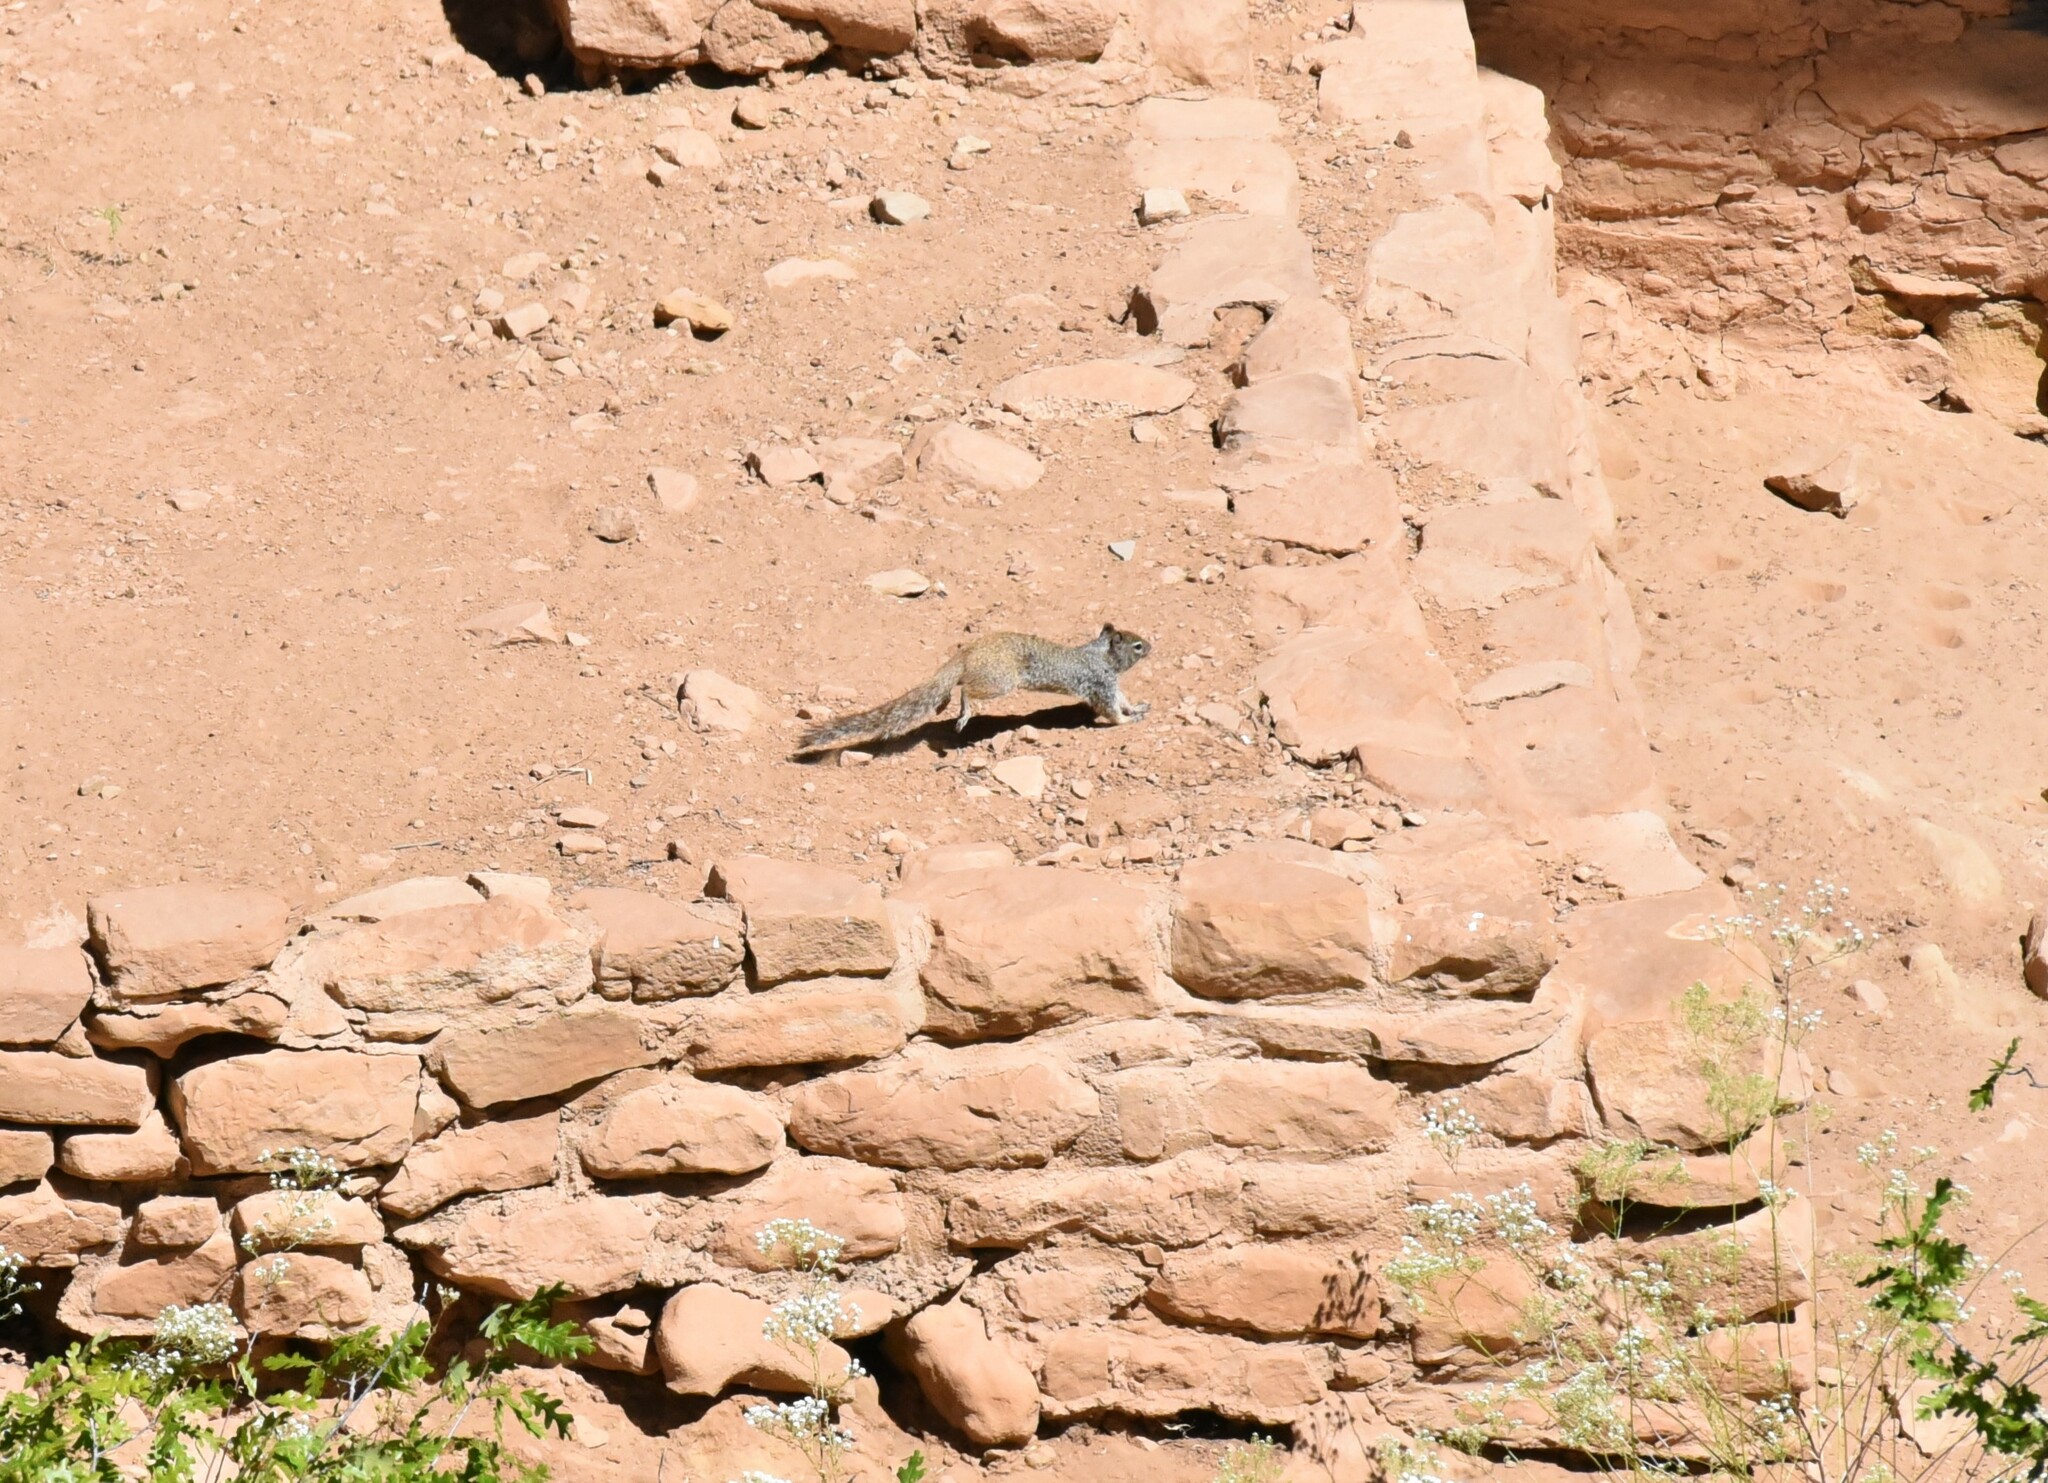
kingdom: Animalia
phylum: Chordata
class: Mammalia
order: Rodentia
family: Sciuridae
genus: Otospermophilus
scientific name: Otospermophilus variegatus
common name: Rock squirrel
